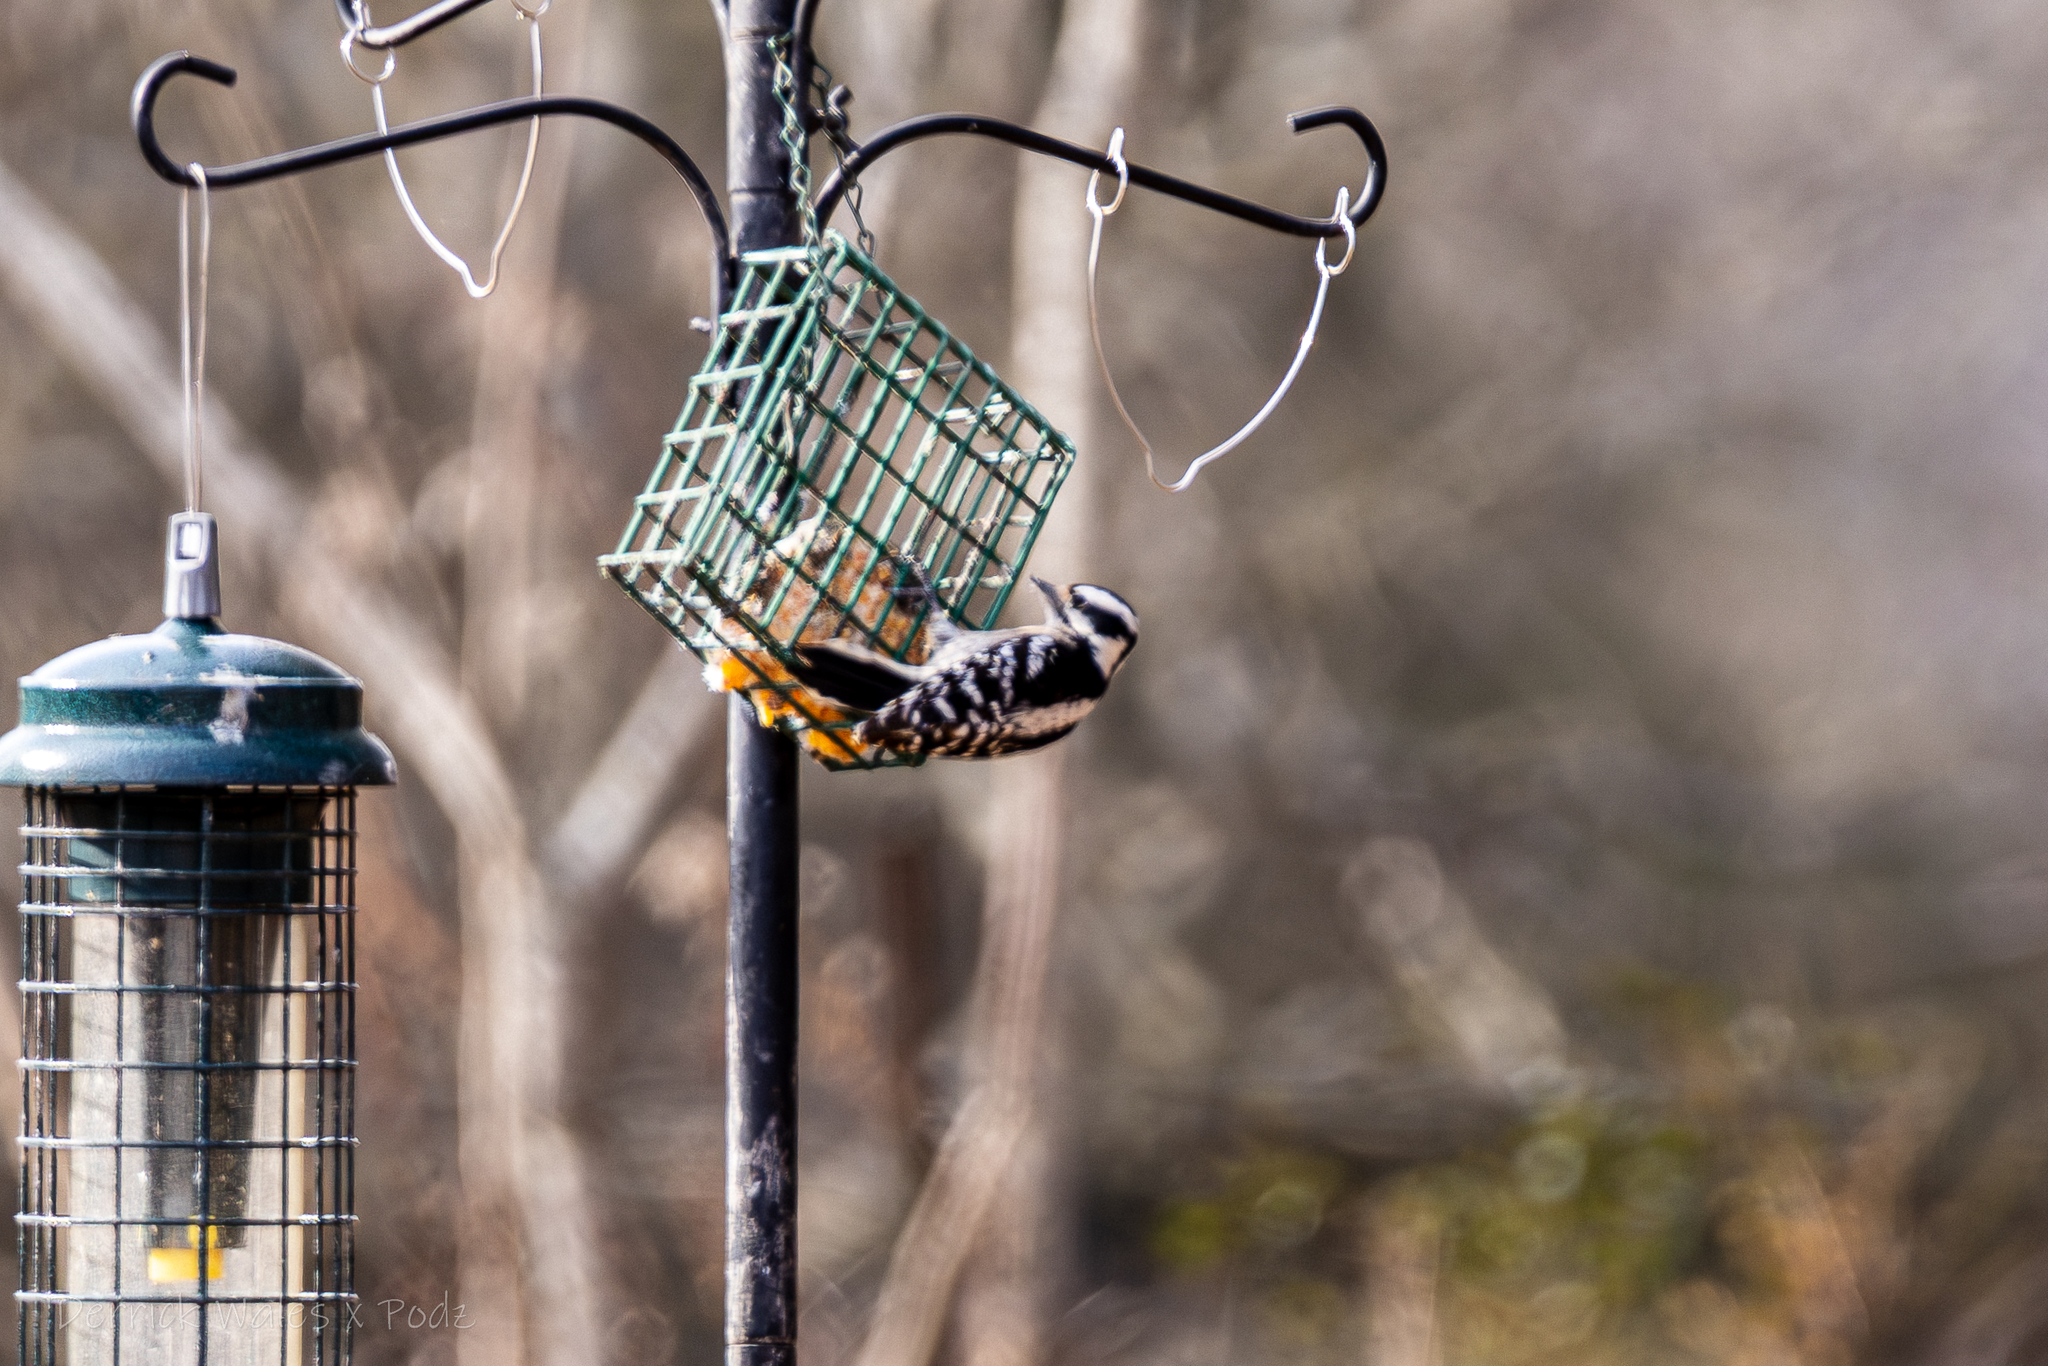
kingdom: Animalia
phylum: Chordata
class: Aves
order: Piciformes
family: Picidae
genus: Dryobates
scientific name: Dryobates pubescens
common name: Downy woodpecker
